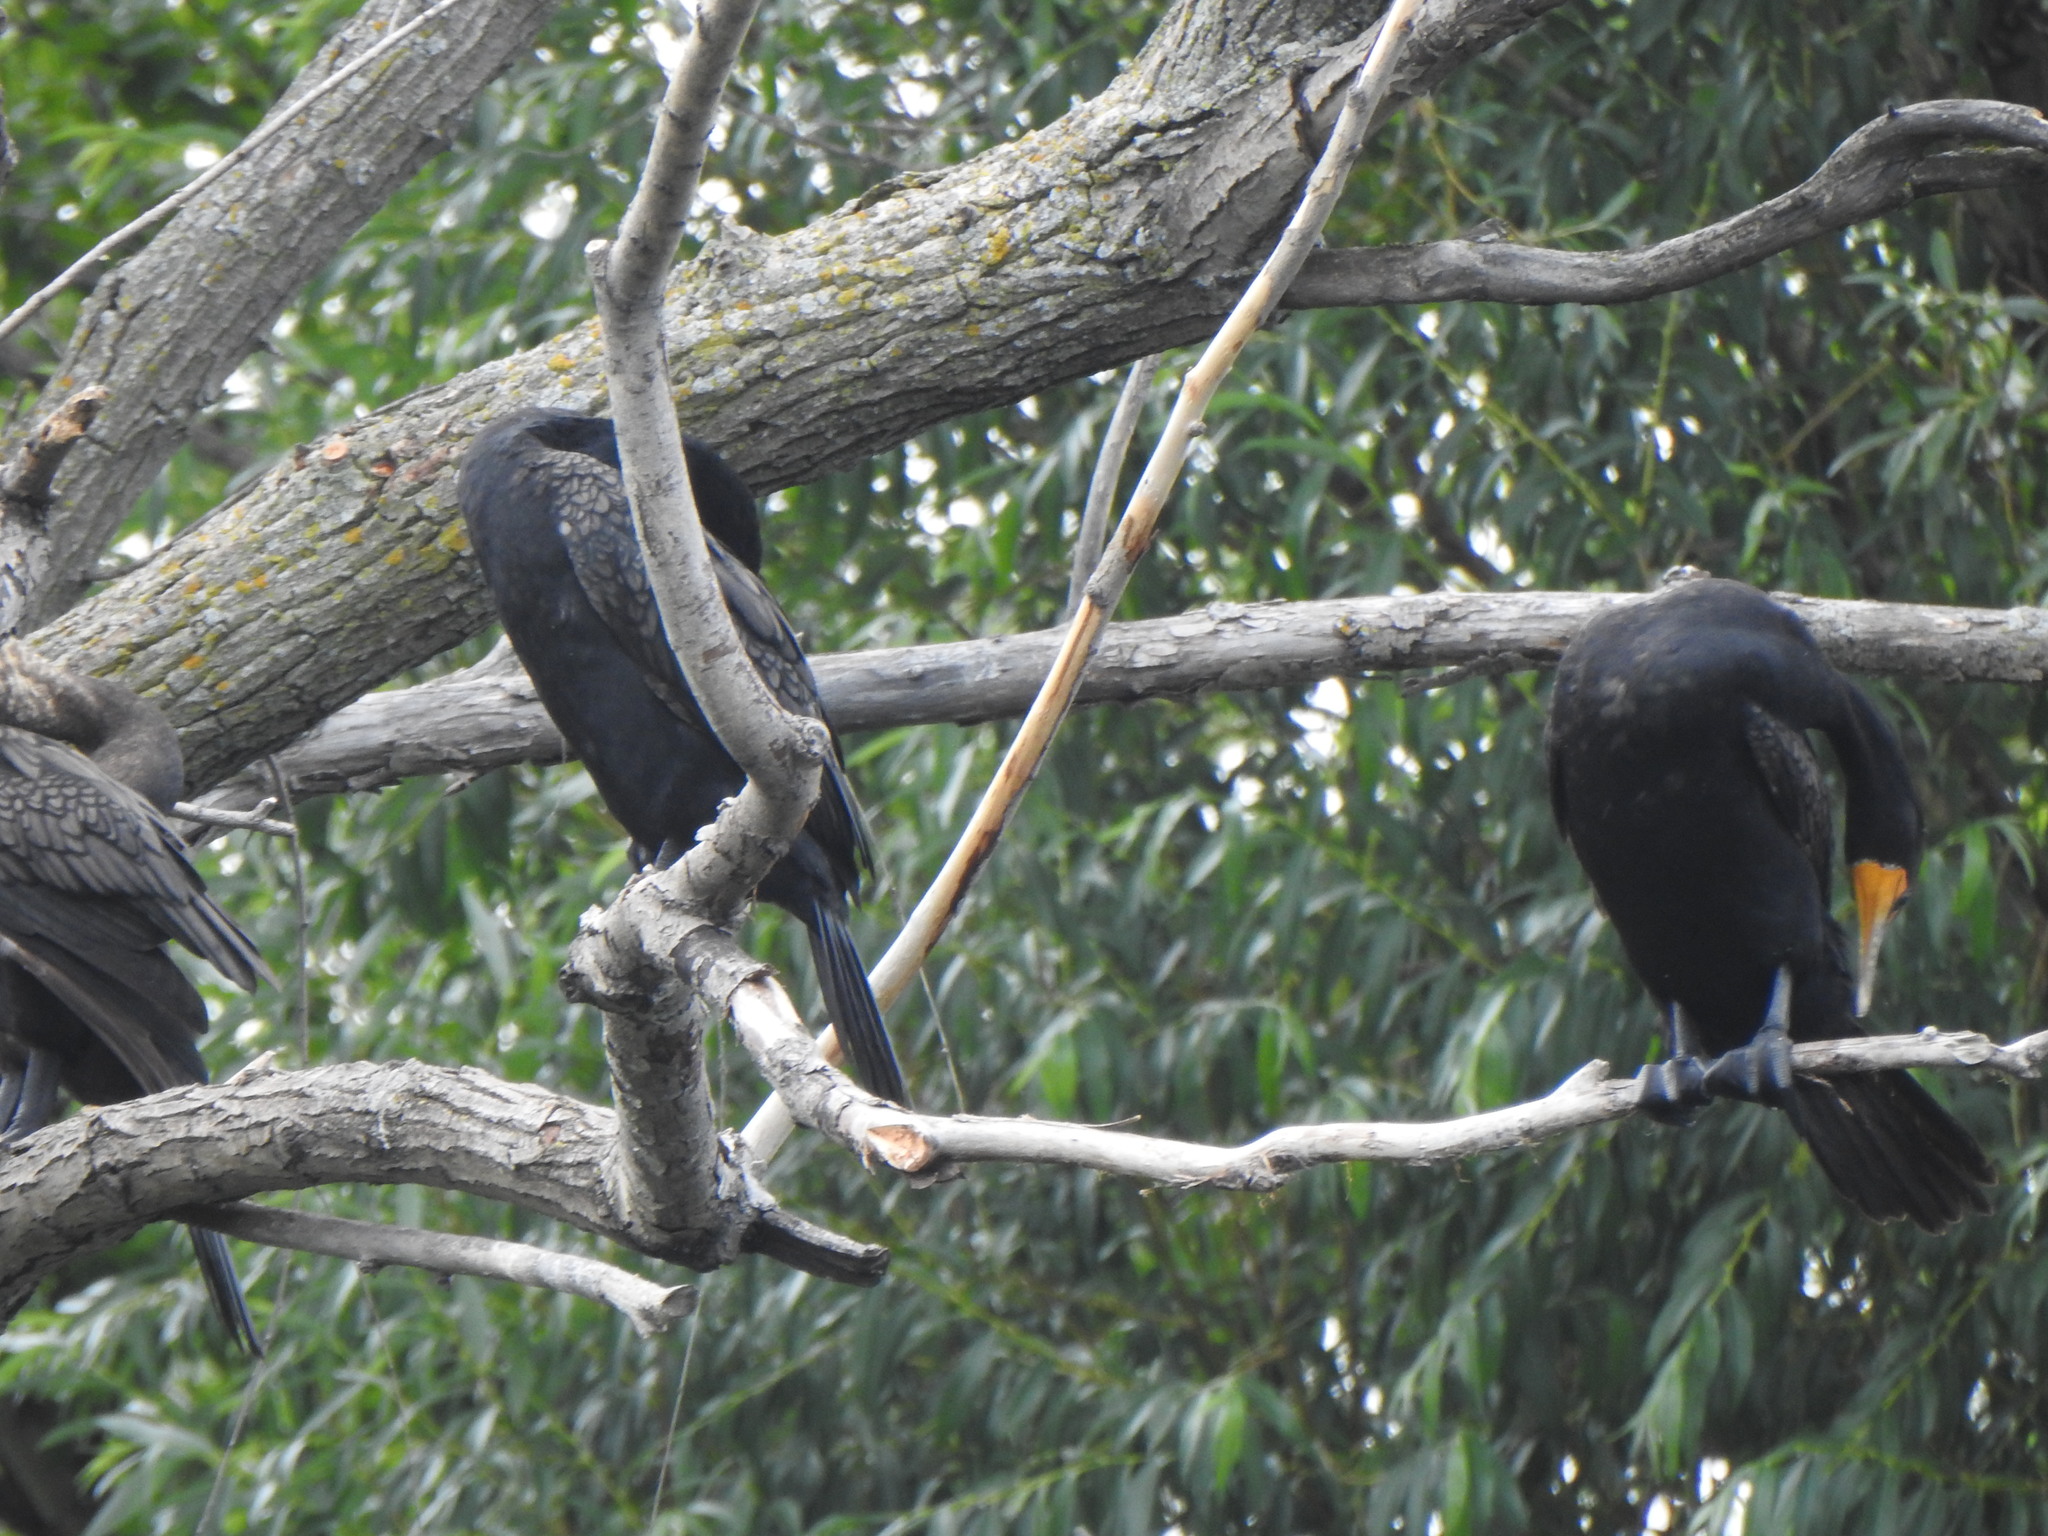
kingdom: Animalia
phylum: Chordata
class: Aves
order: Suliformes
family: Phalacrocoracidae
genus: Phalacrocorax
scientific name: Phalacrocorax auritus
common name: Double-crested cormorant
